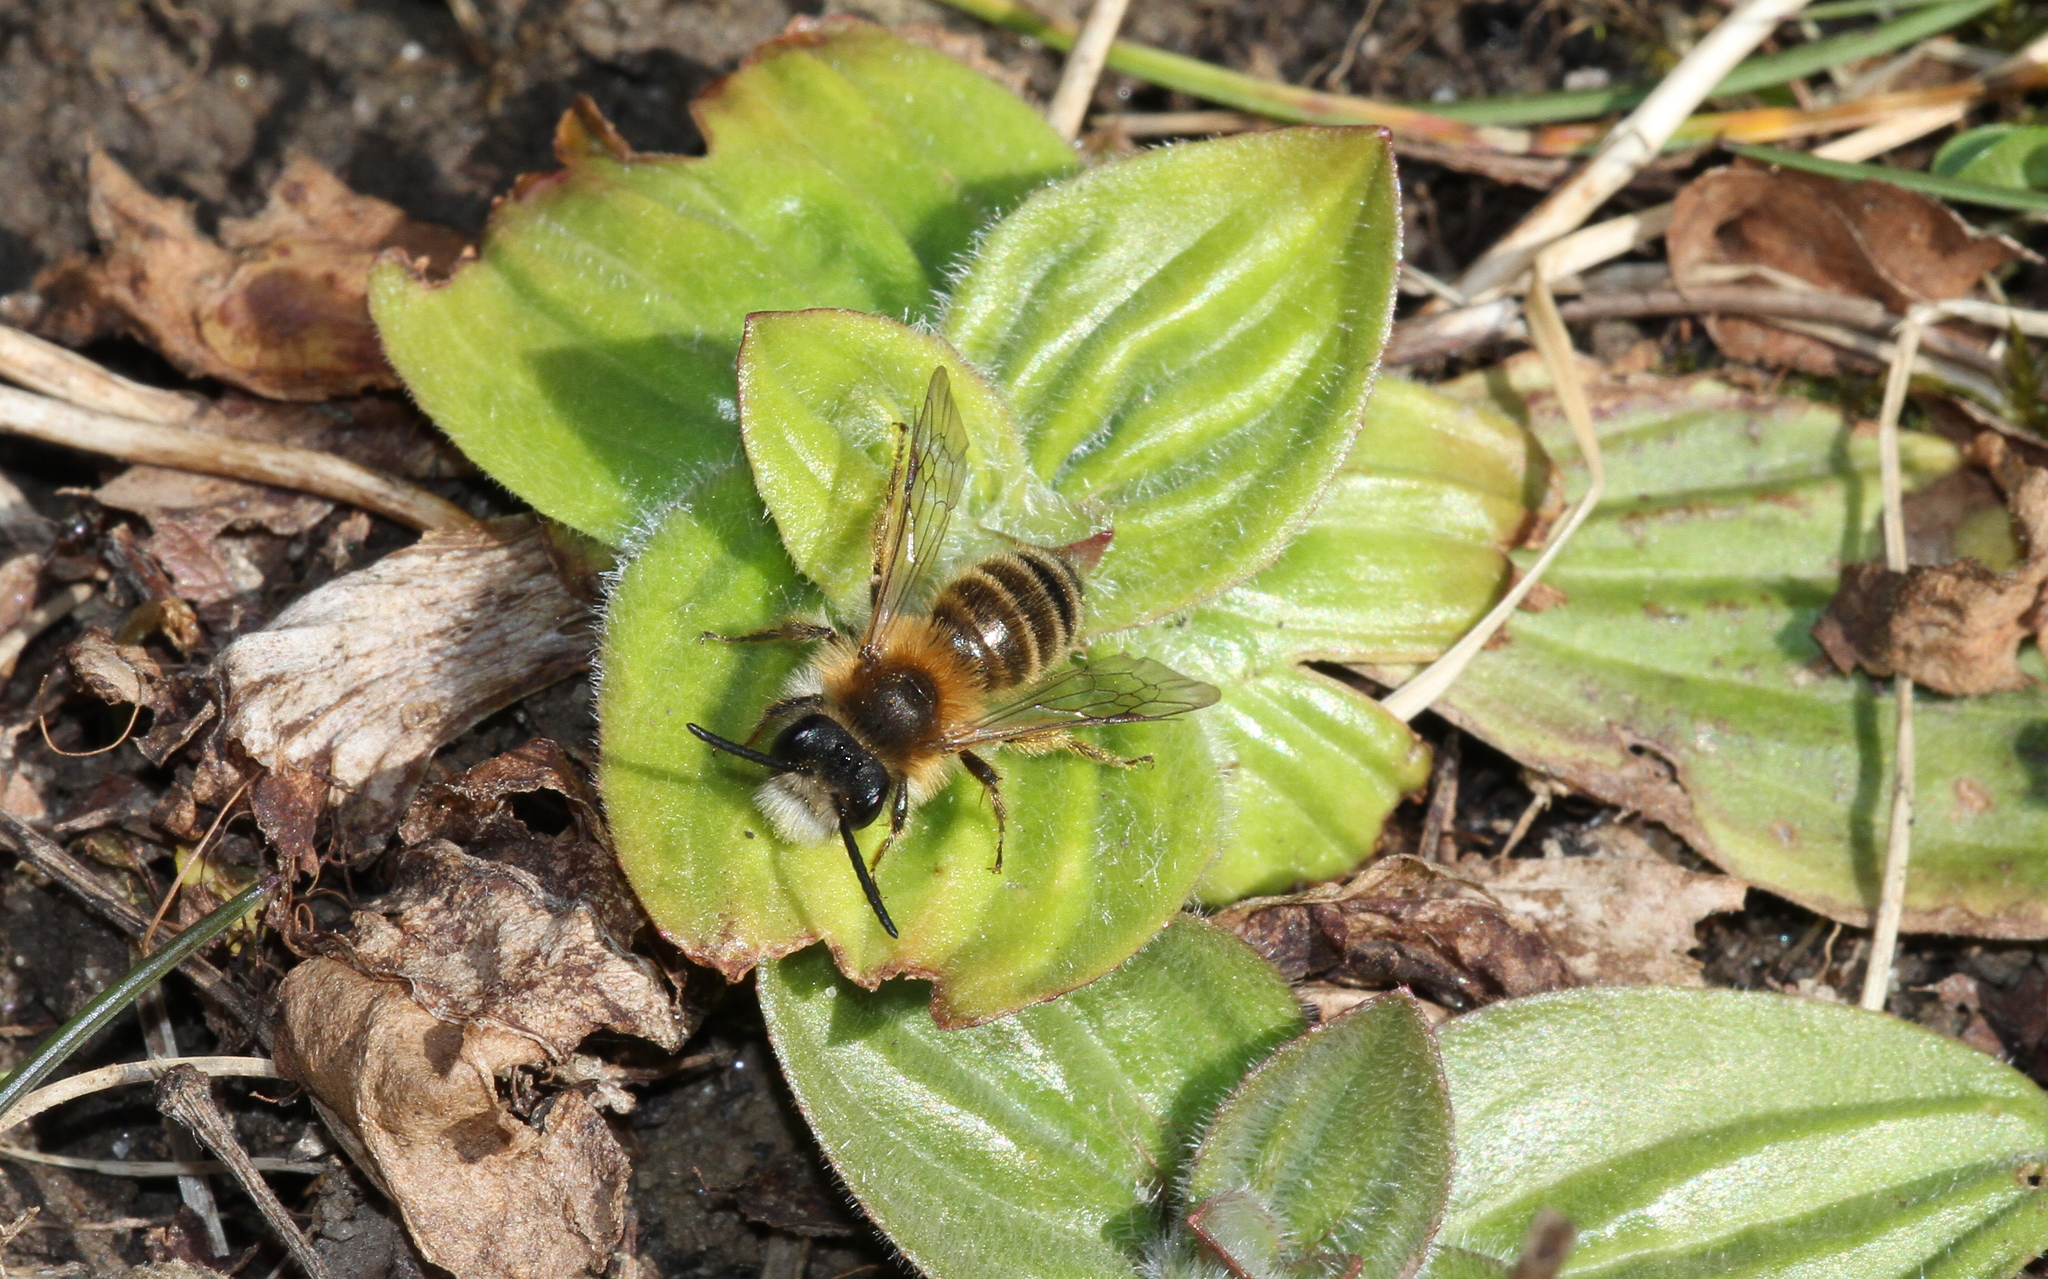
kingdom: Animalia
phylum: Arthropoda
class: Insecta
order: Hymenoptera
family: Andrenidae
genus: Andrena
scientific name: Andrena fulva
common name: Tawny mining bee
